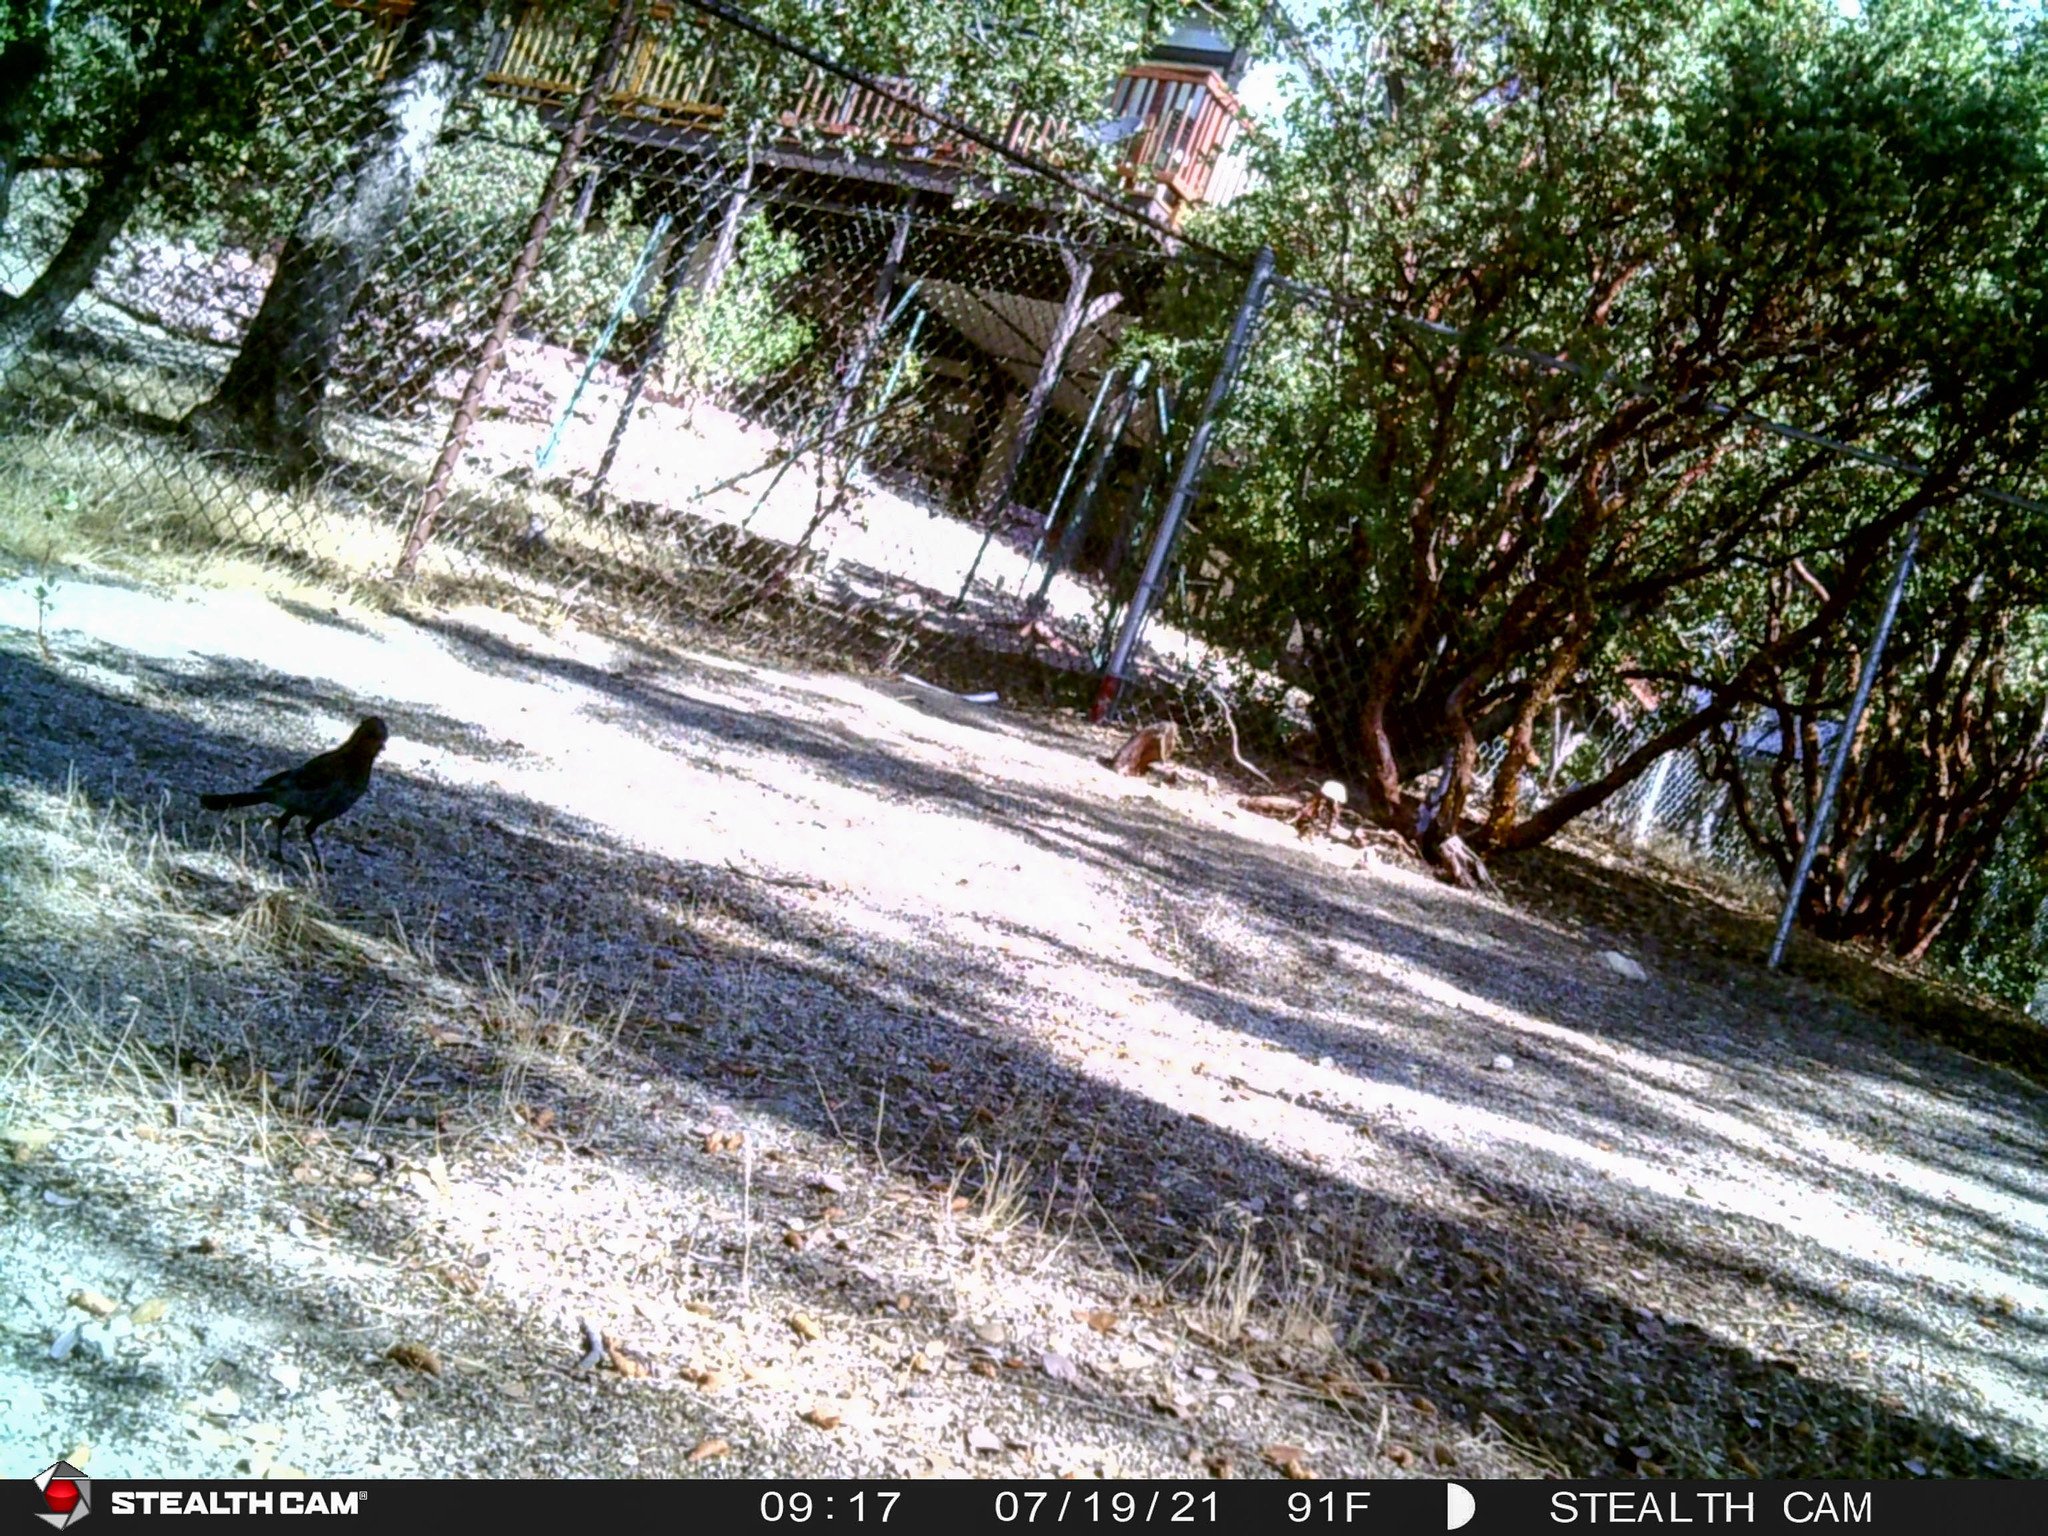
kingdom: Animalia
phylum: Chordata
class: Aves
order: Passeriformes
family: Corvidae
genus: Cyanocitta
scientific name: Cyanocitta stelleri
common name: Steller's jay
